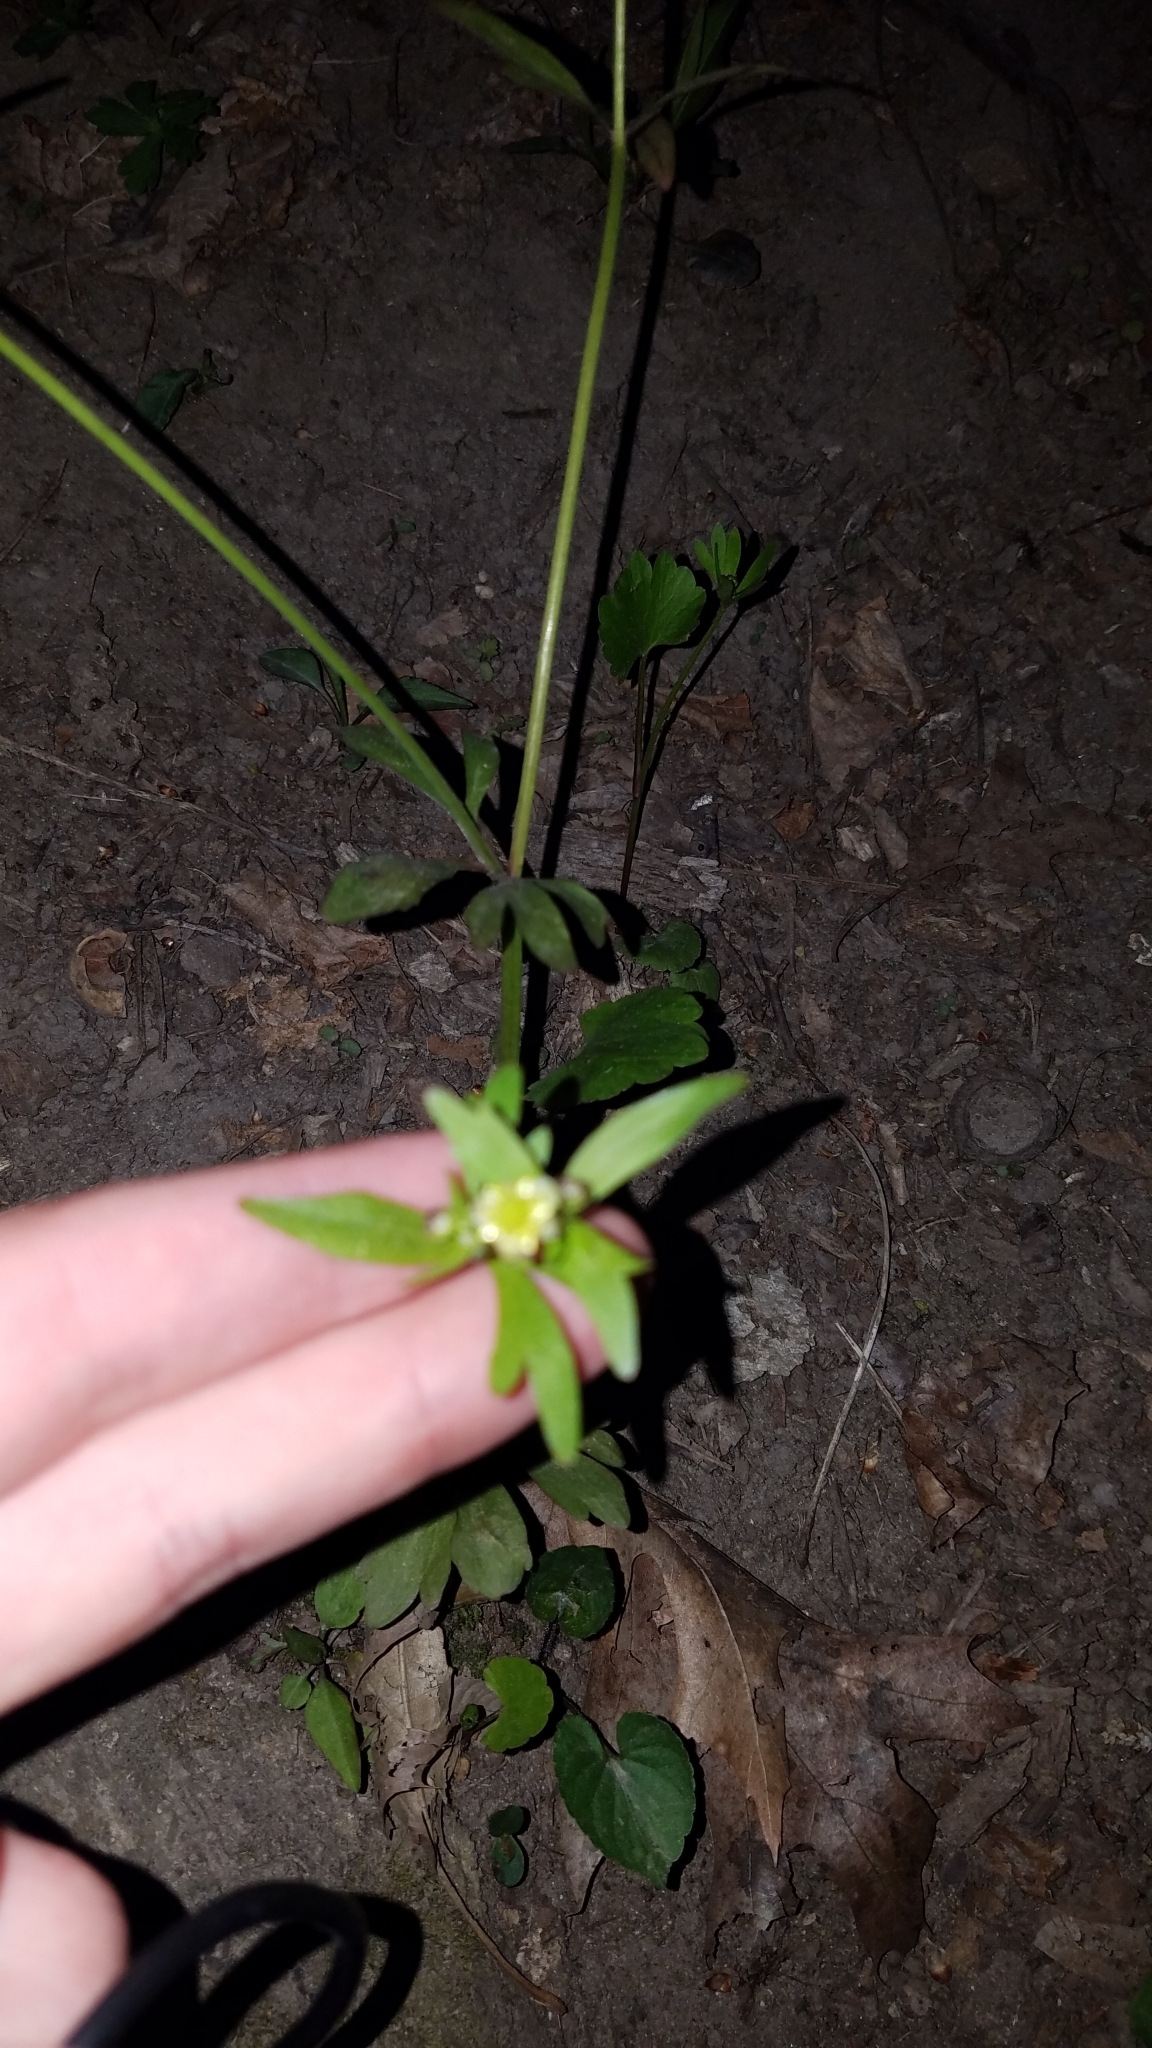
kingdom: Plantae
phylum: Tracheophyta
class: Magnoliopsida
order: Ranunculales
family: Ranunculaceae
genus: Ranunculus
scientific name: Ranunculus abortivus
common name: Early wood buttercup
